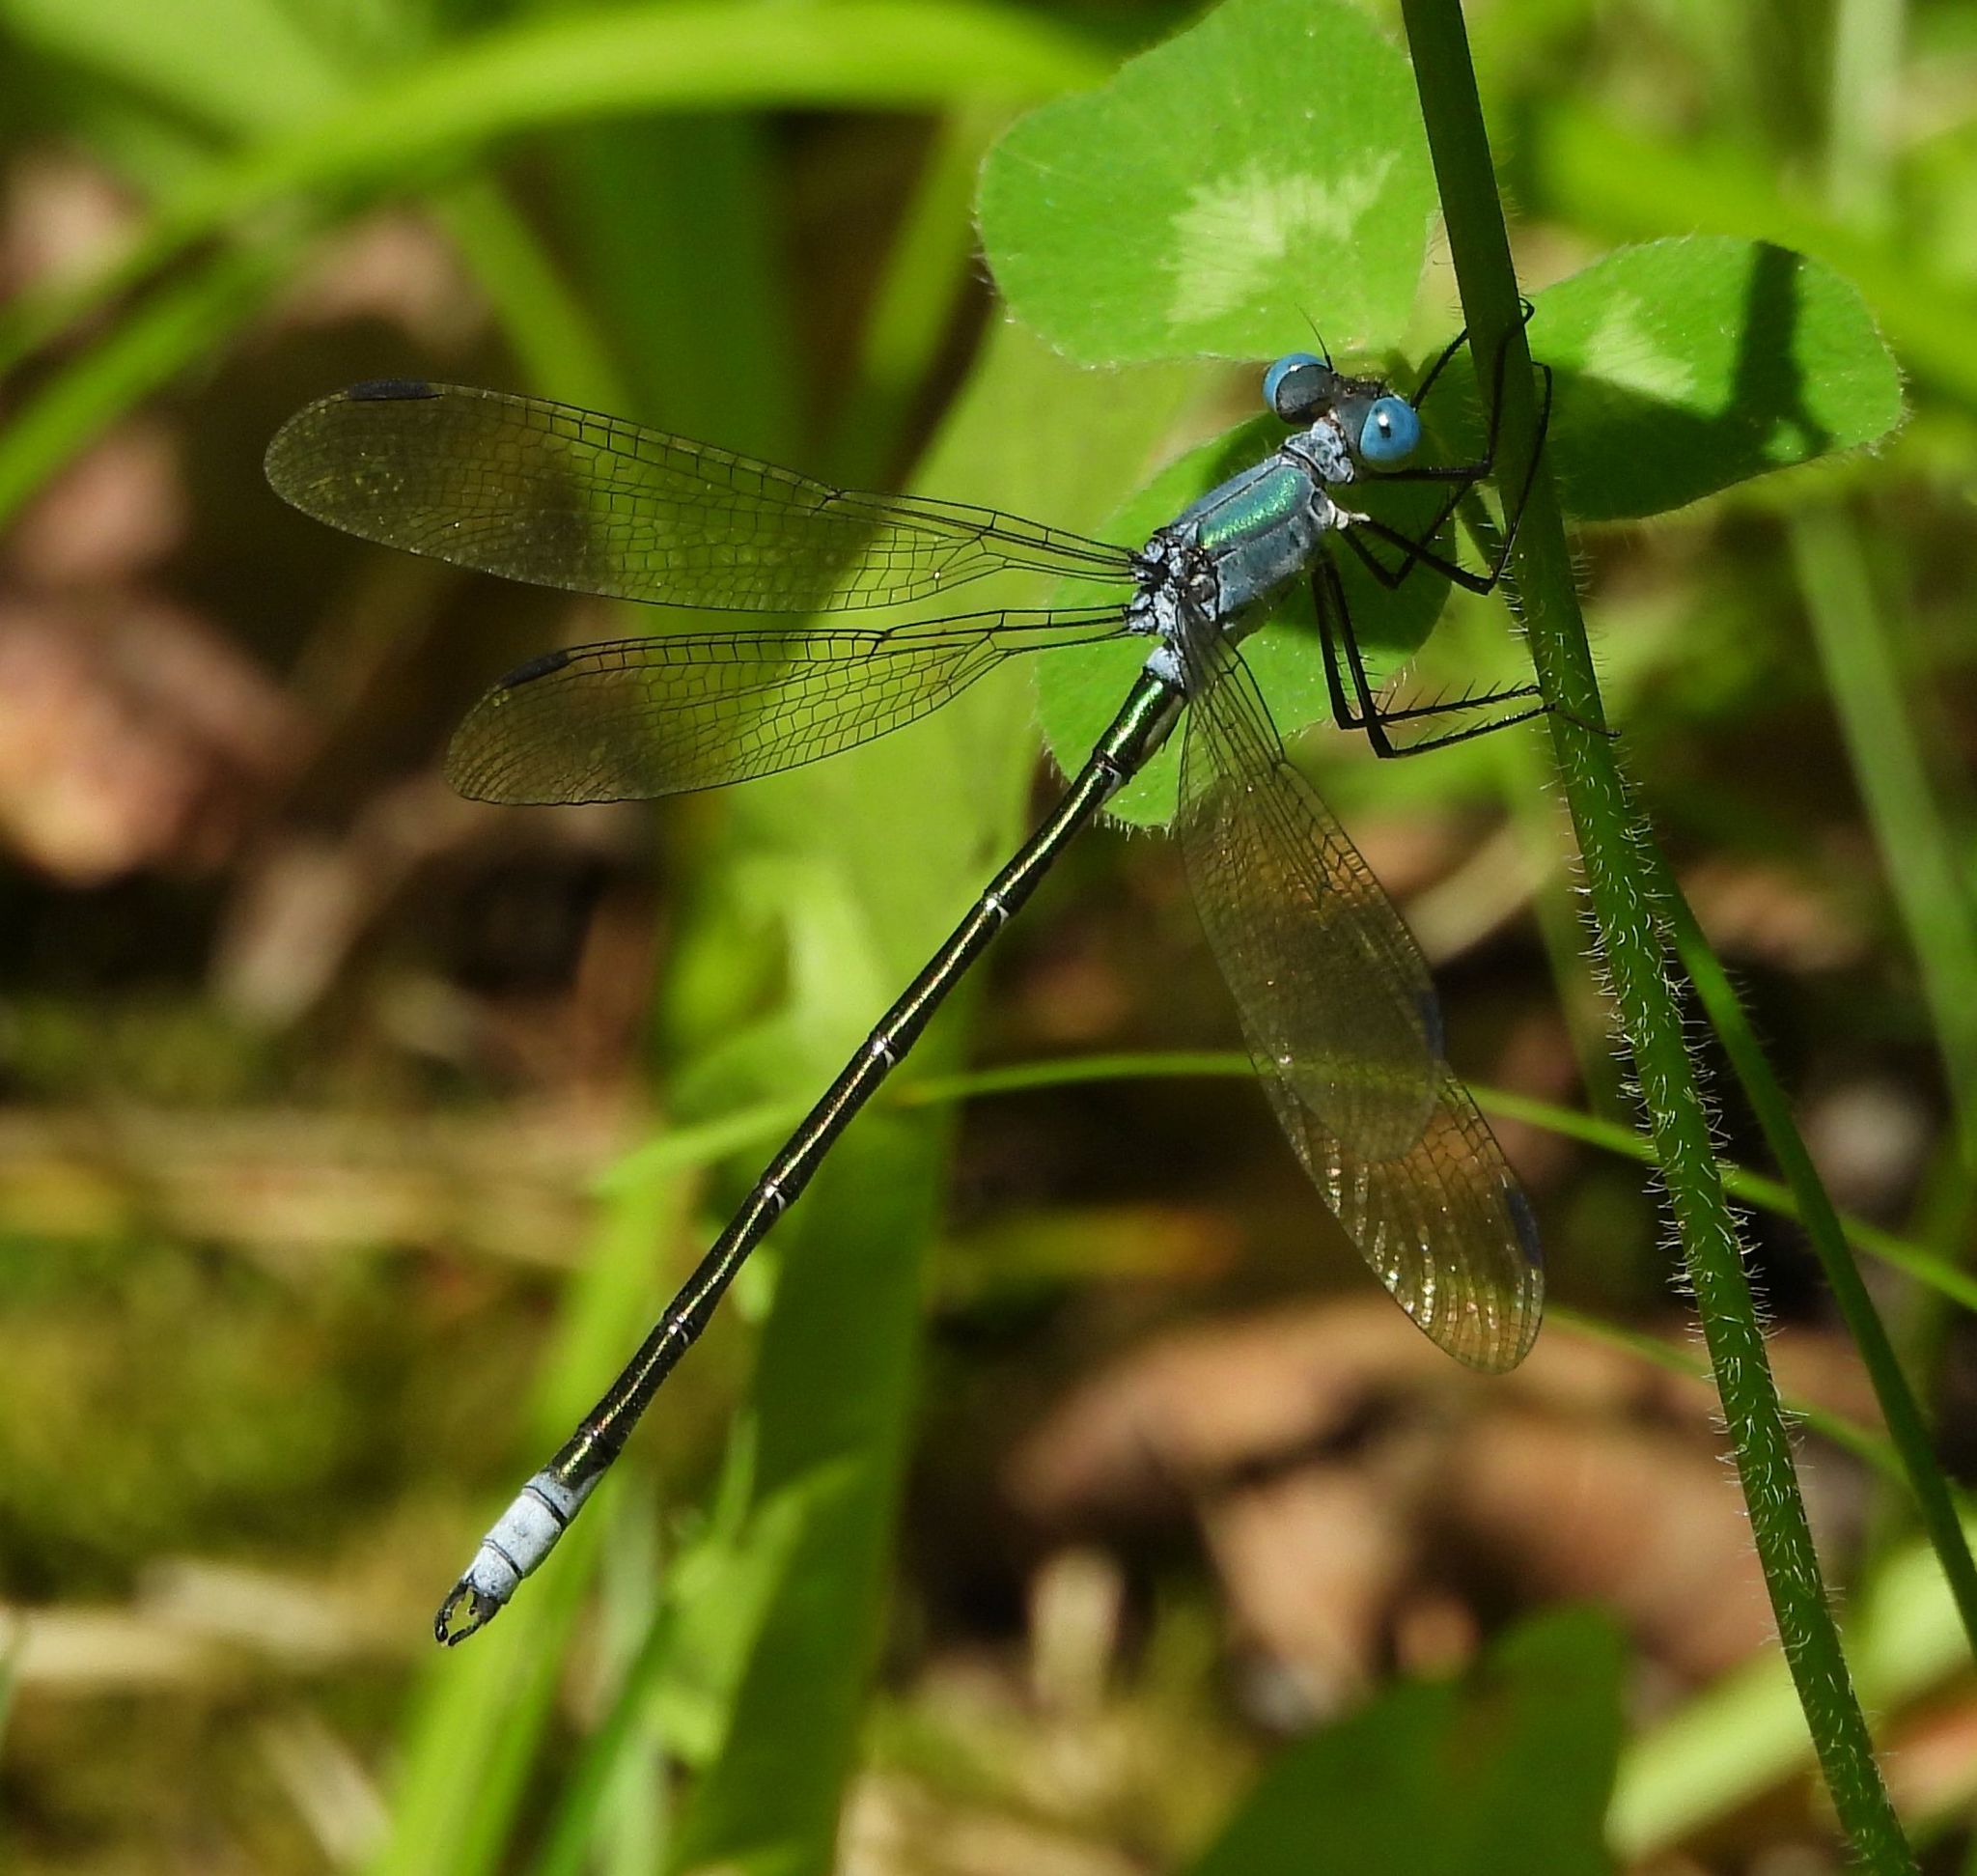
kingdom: Animalia
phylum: Arthropoda
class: Insecta
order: Odonata
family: Lestidae
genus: Lestes
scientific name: Lestes eurinus
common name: Amber-winged spreadwing
